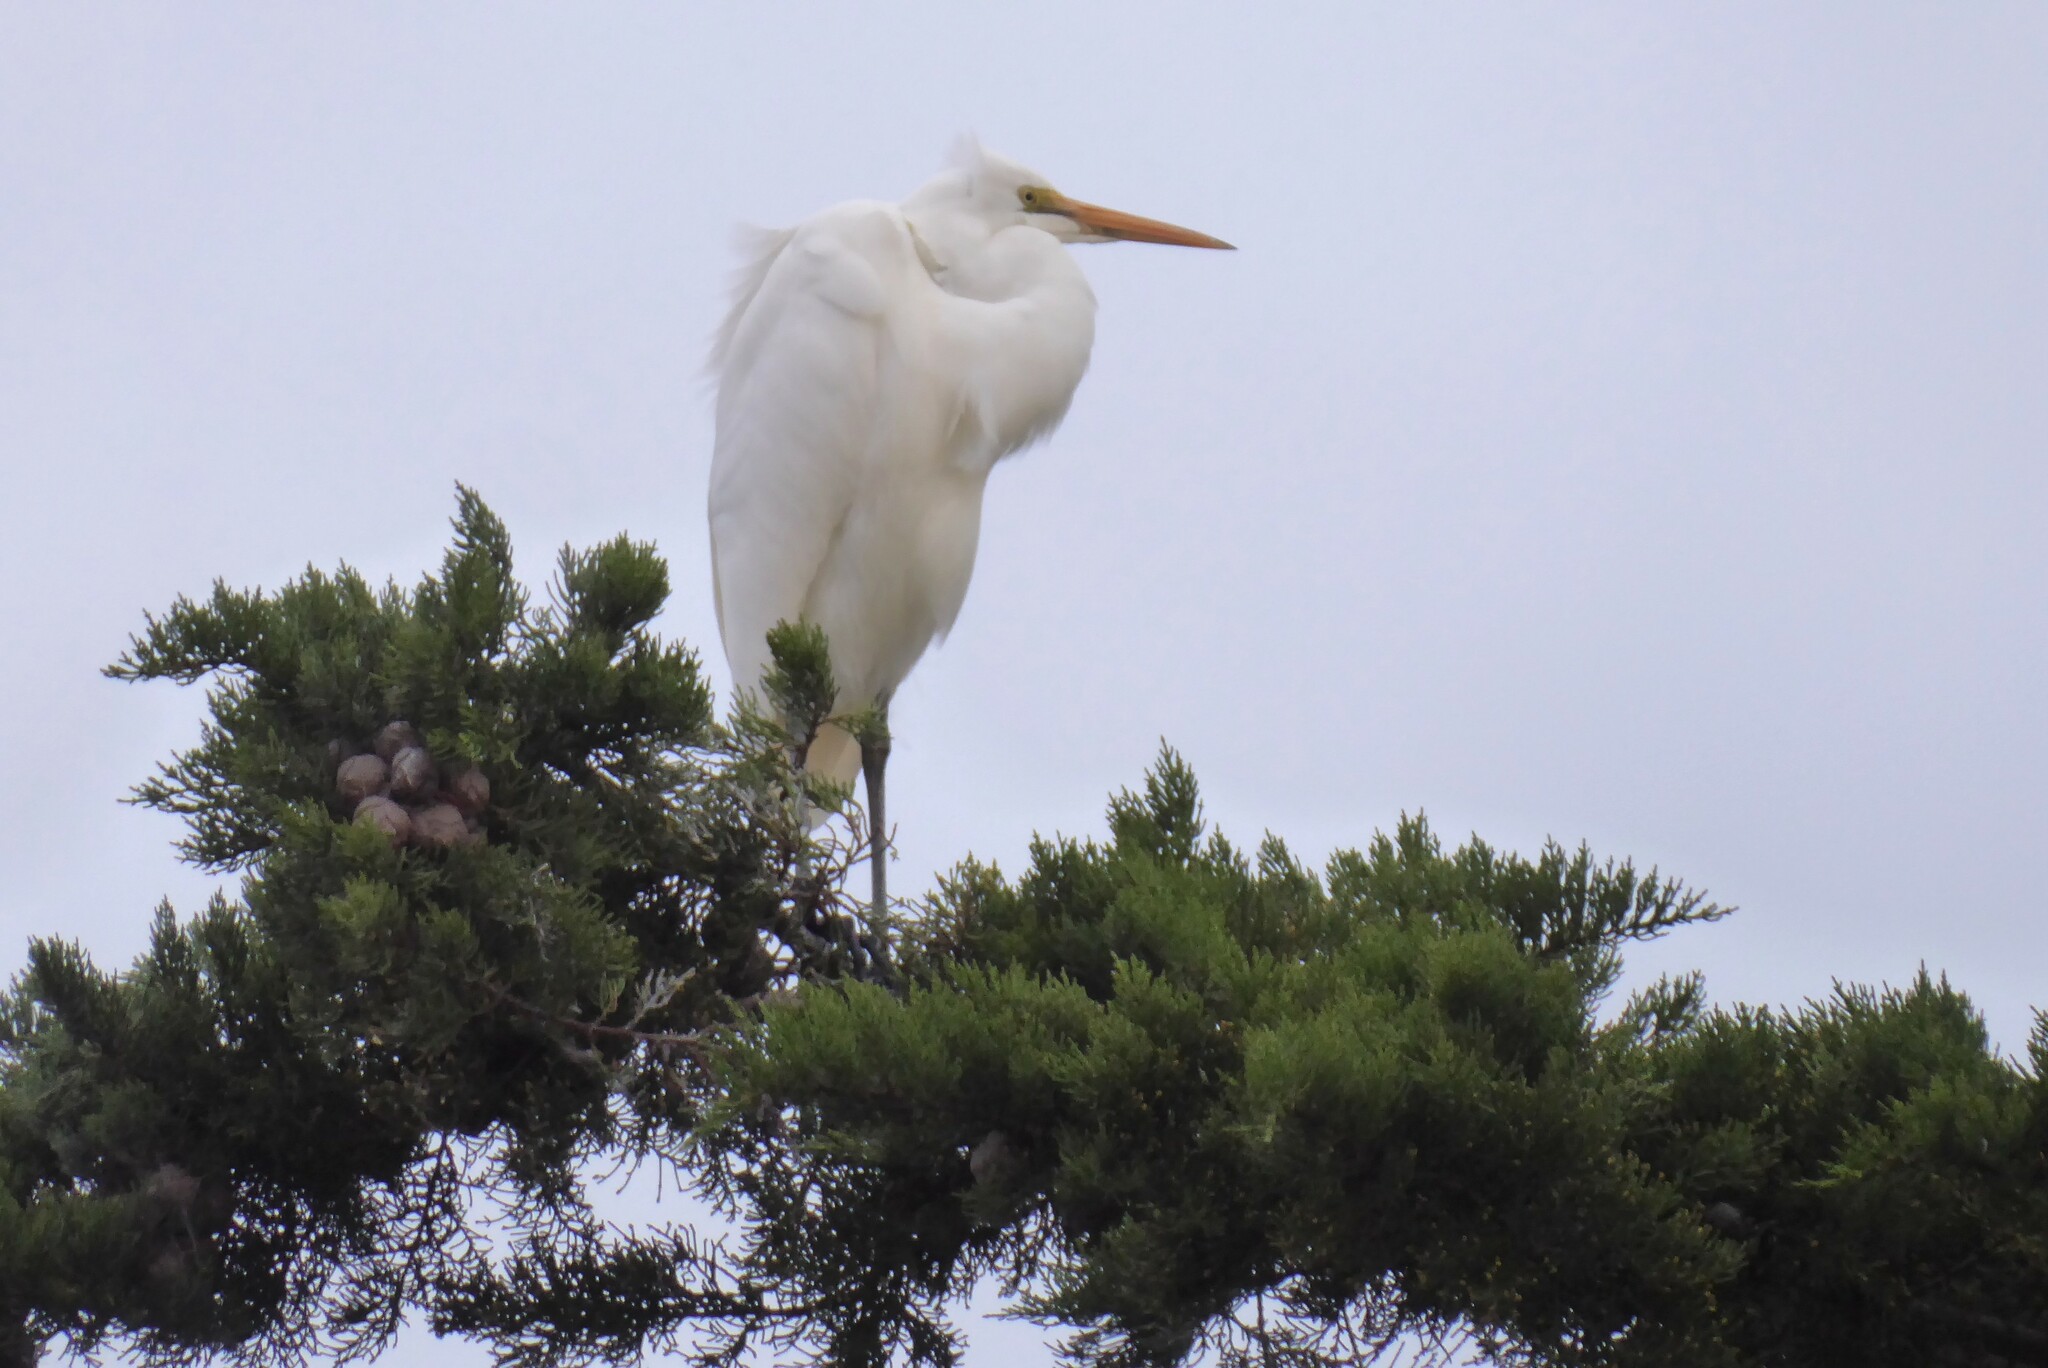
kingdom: Animalia
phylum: Chordata
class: Aves
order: Pelecaniformes
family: Ardeidae
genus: Ardea
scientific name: Ardea modesta
